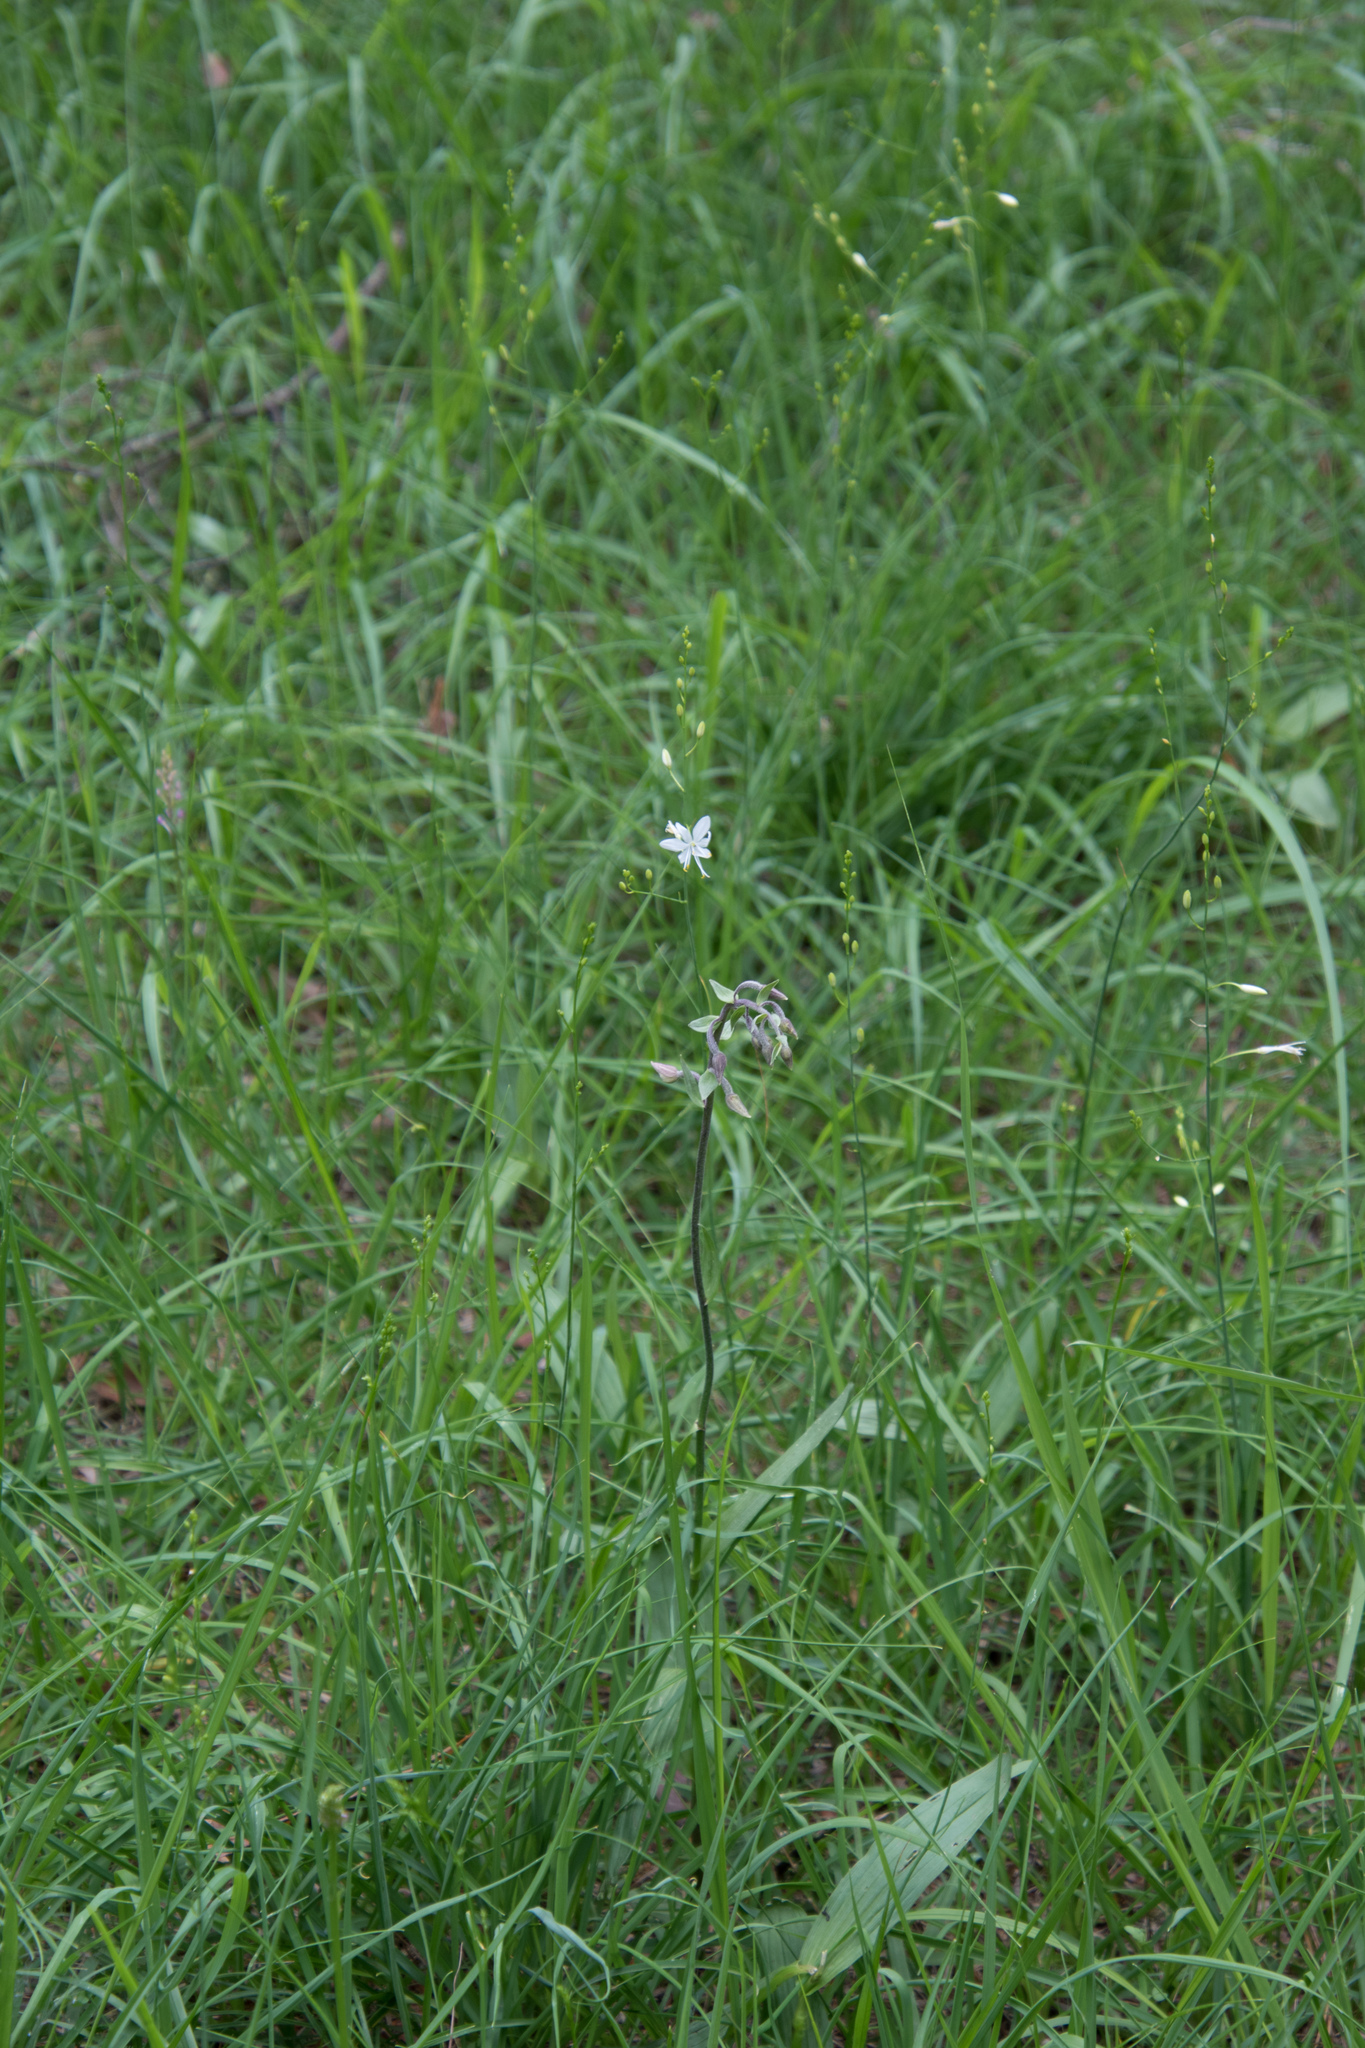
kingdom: Plantae
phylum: Tracheophyta
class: Liliopsida
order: Asparagales
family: Orchidaceae
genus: Epipactis
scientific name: Epipactis palustris
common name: Marsh helleborine
